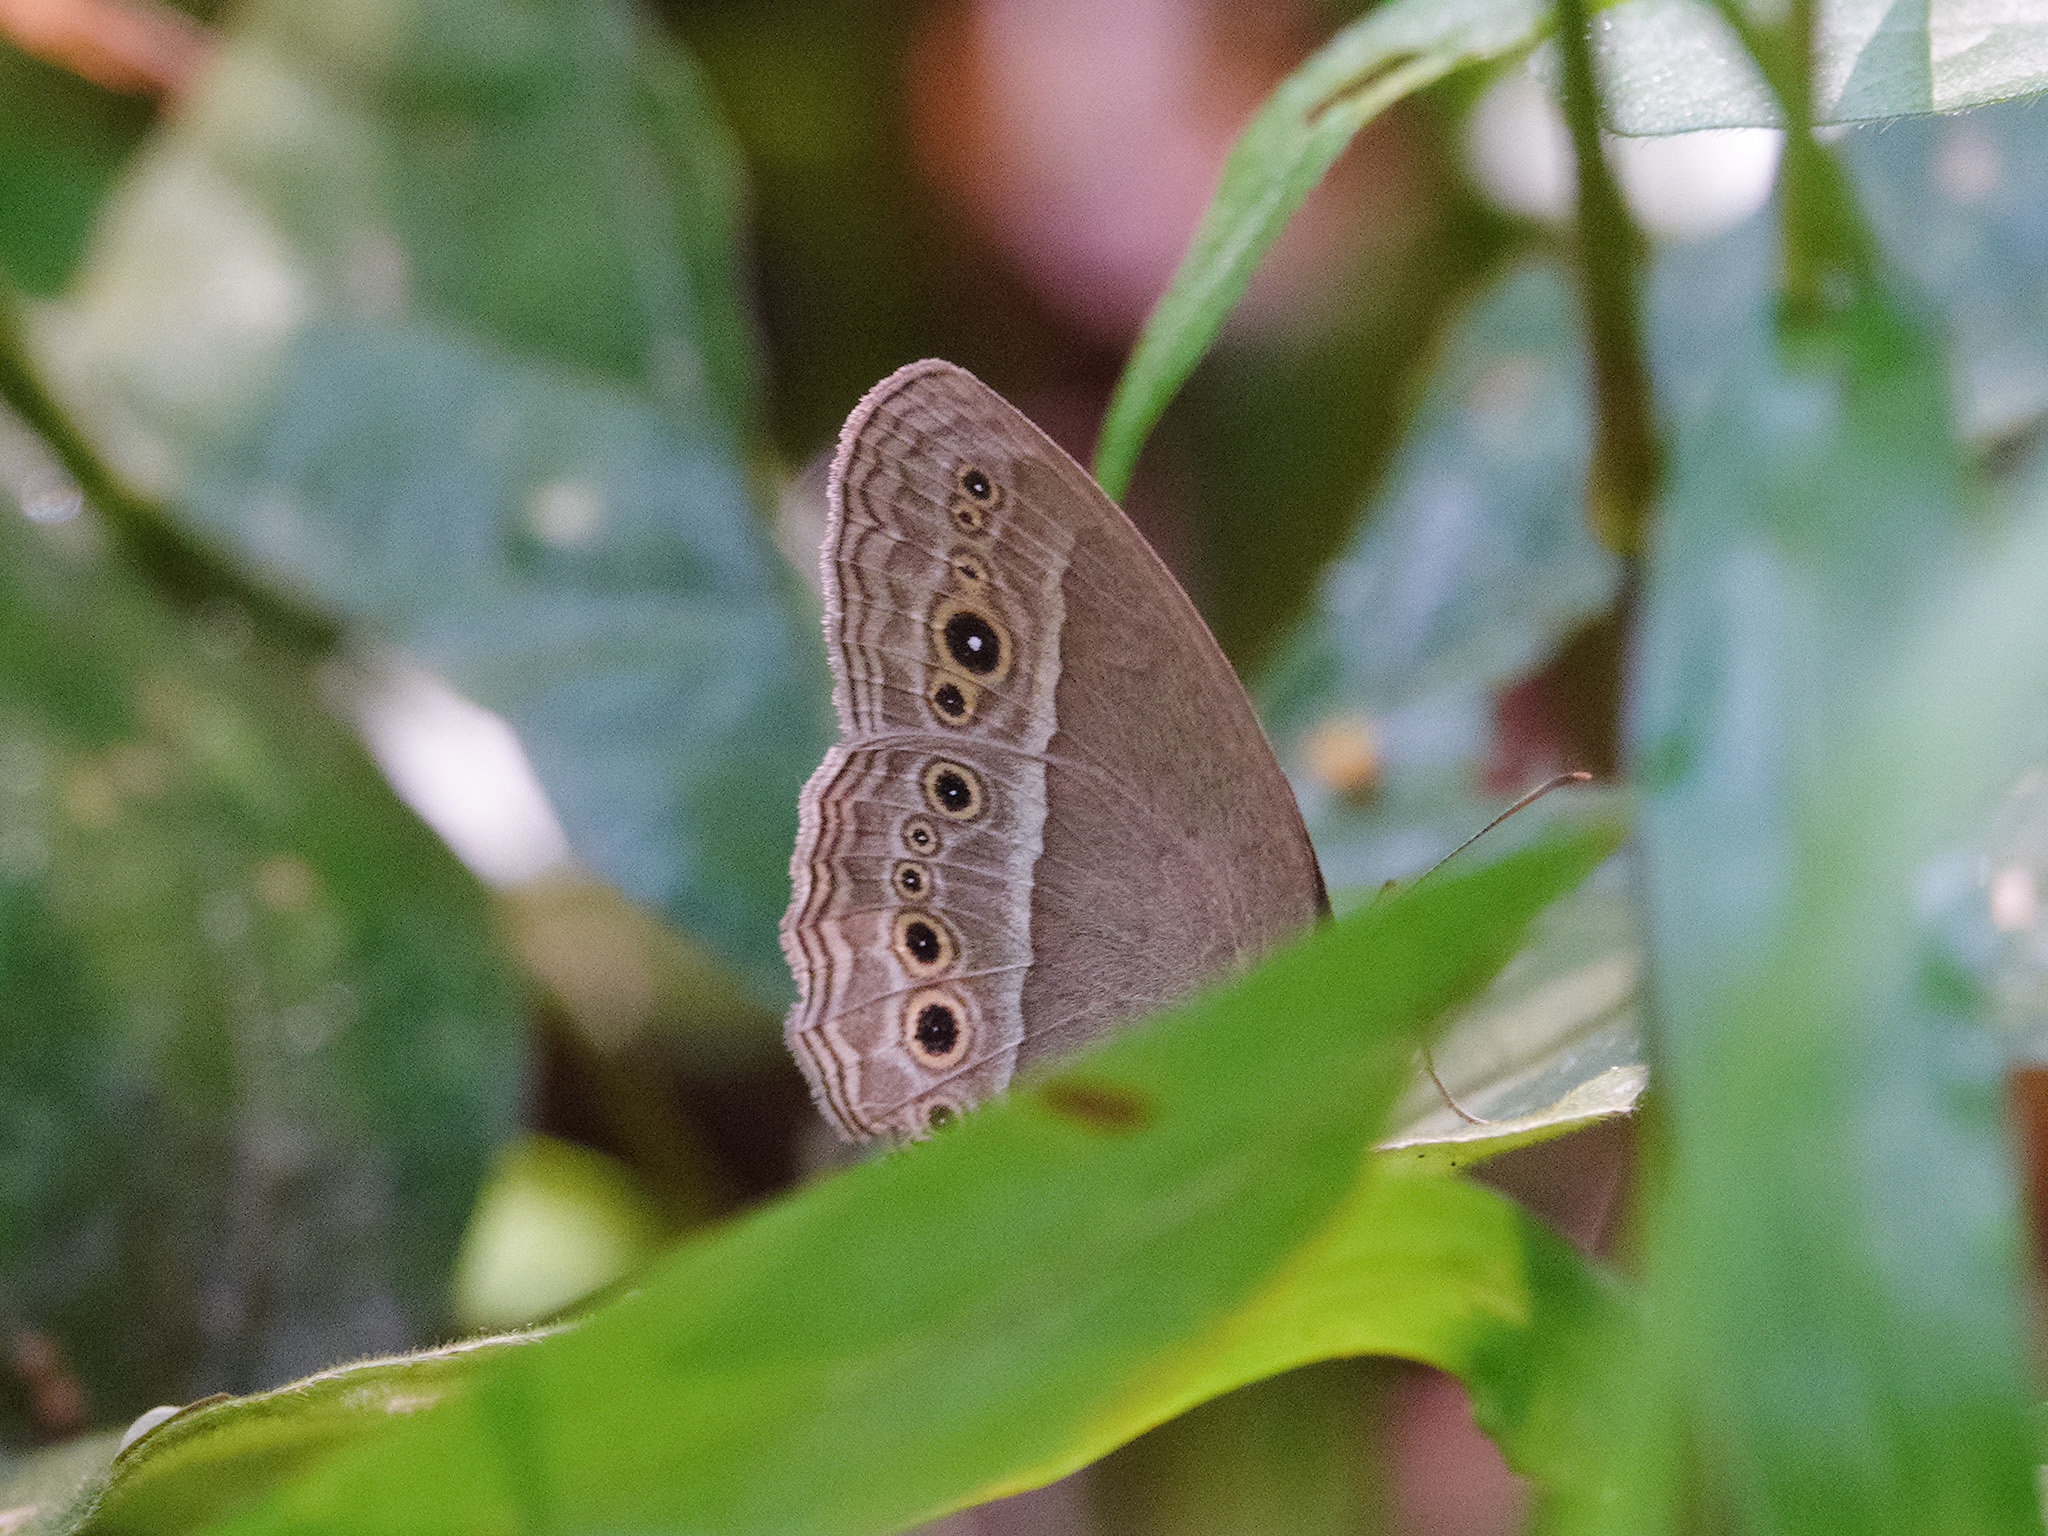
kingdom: Animalia
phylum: Arthropoda
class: Insecta
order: Lepidoptera
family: Nymphalidae
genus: Mycalesis
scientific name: Mycalesis perseoides
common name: Burmese bushbrown
